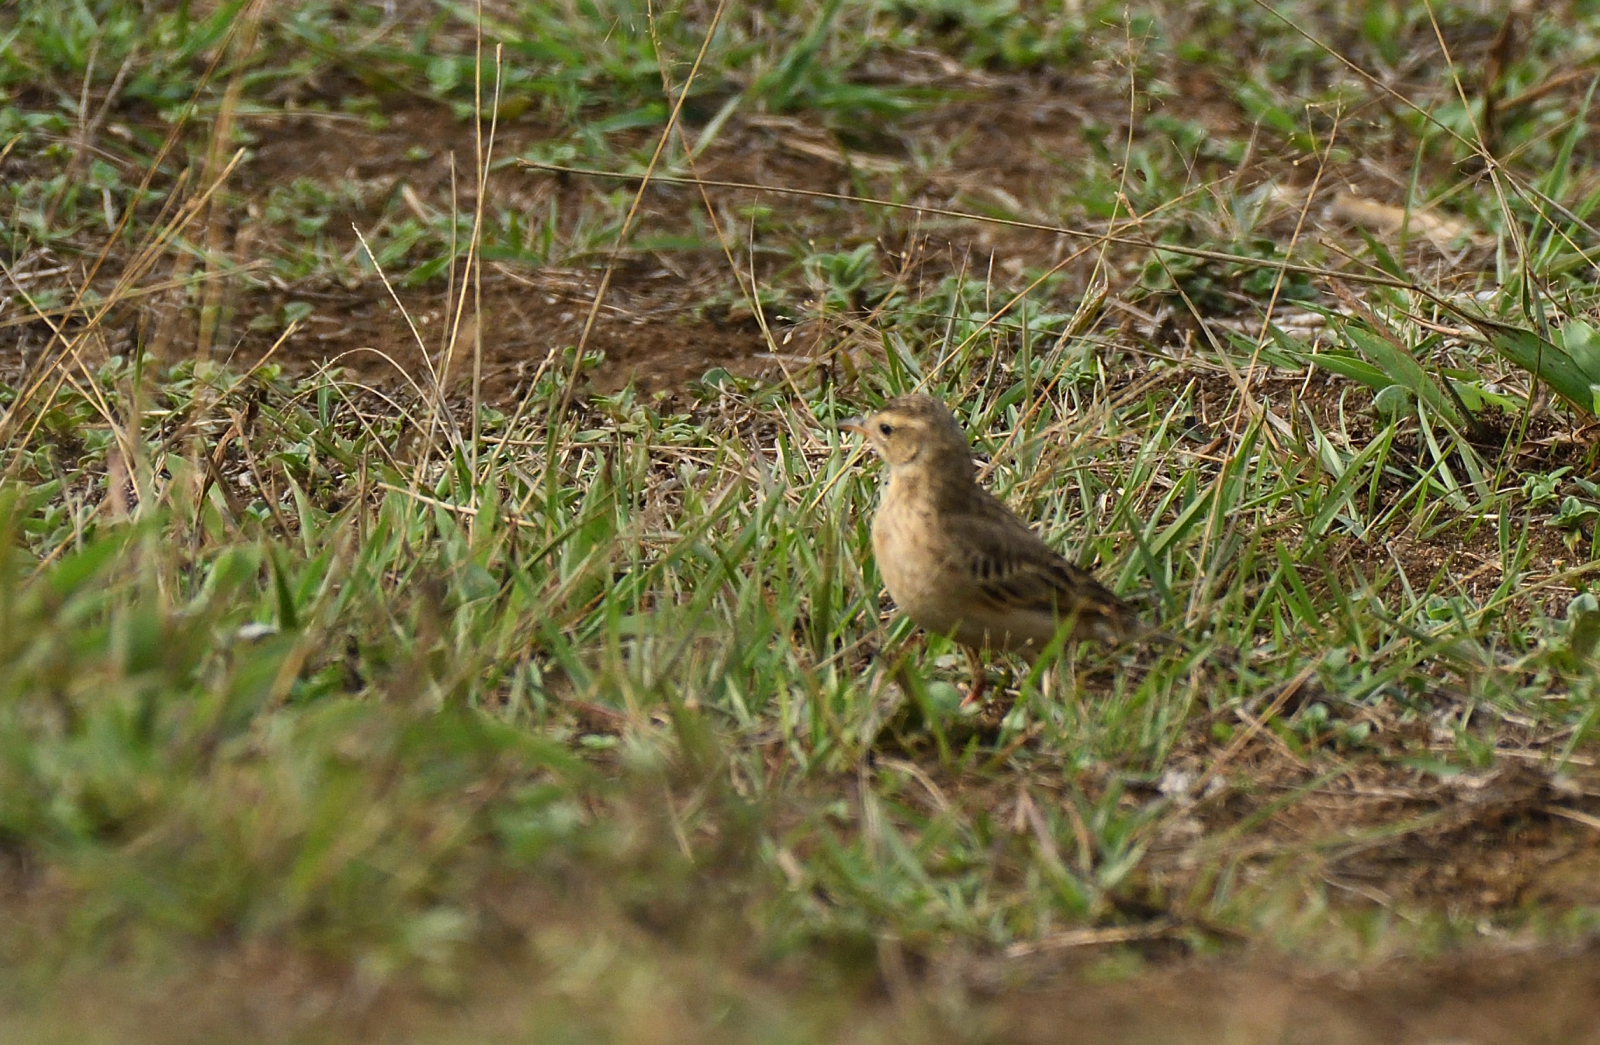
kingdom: Animalia
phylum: Chordata
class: Aves
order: Passeriformes
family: Motacillidae
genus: Anthus
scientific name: Anthus rufulus
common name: Paddyfield pipit
